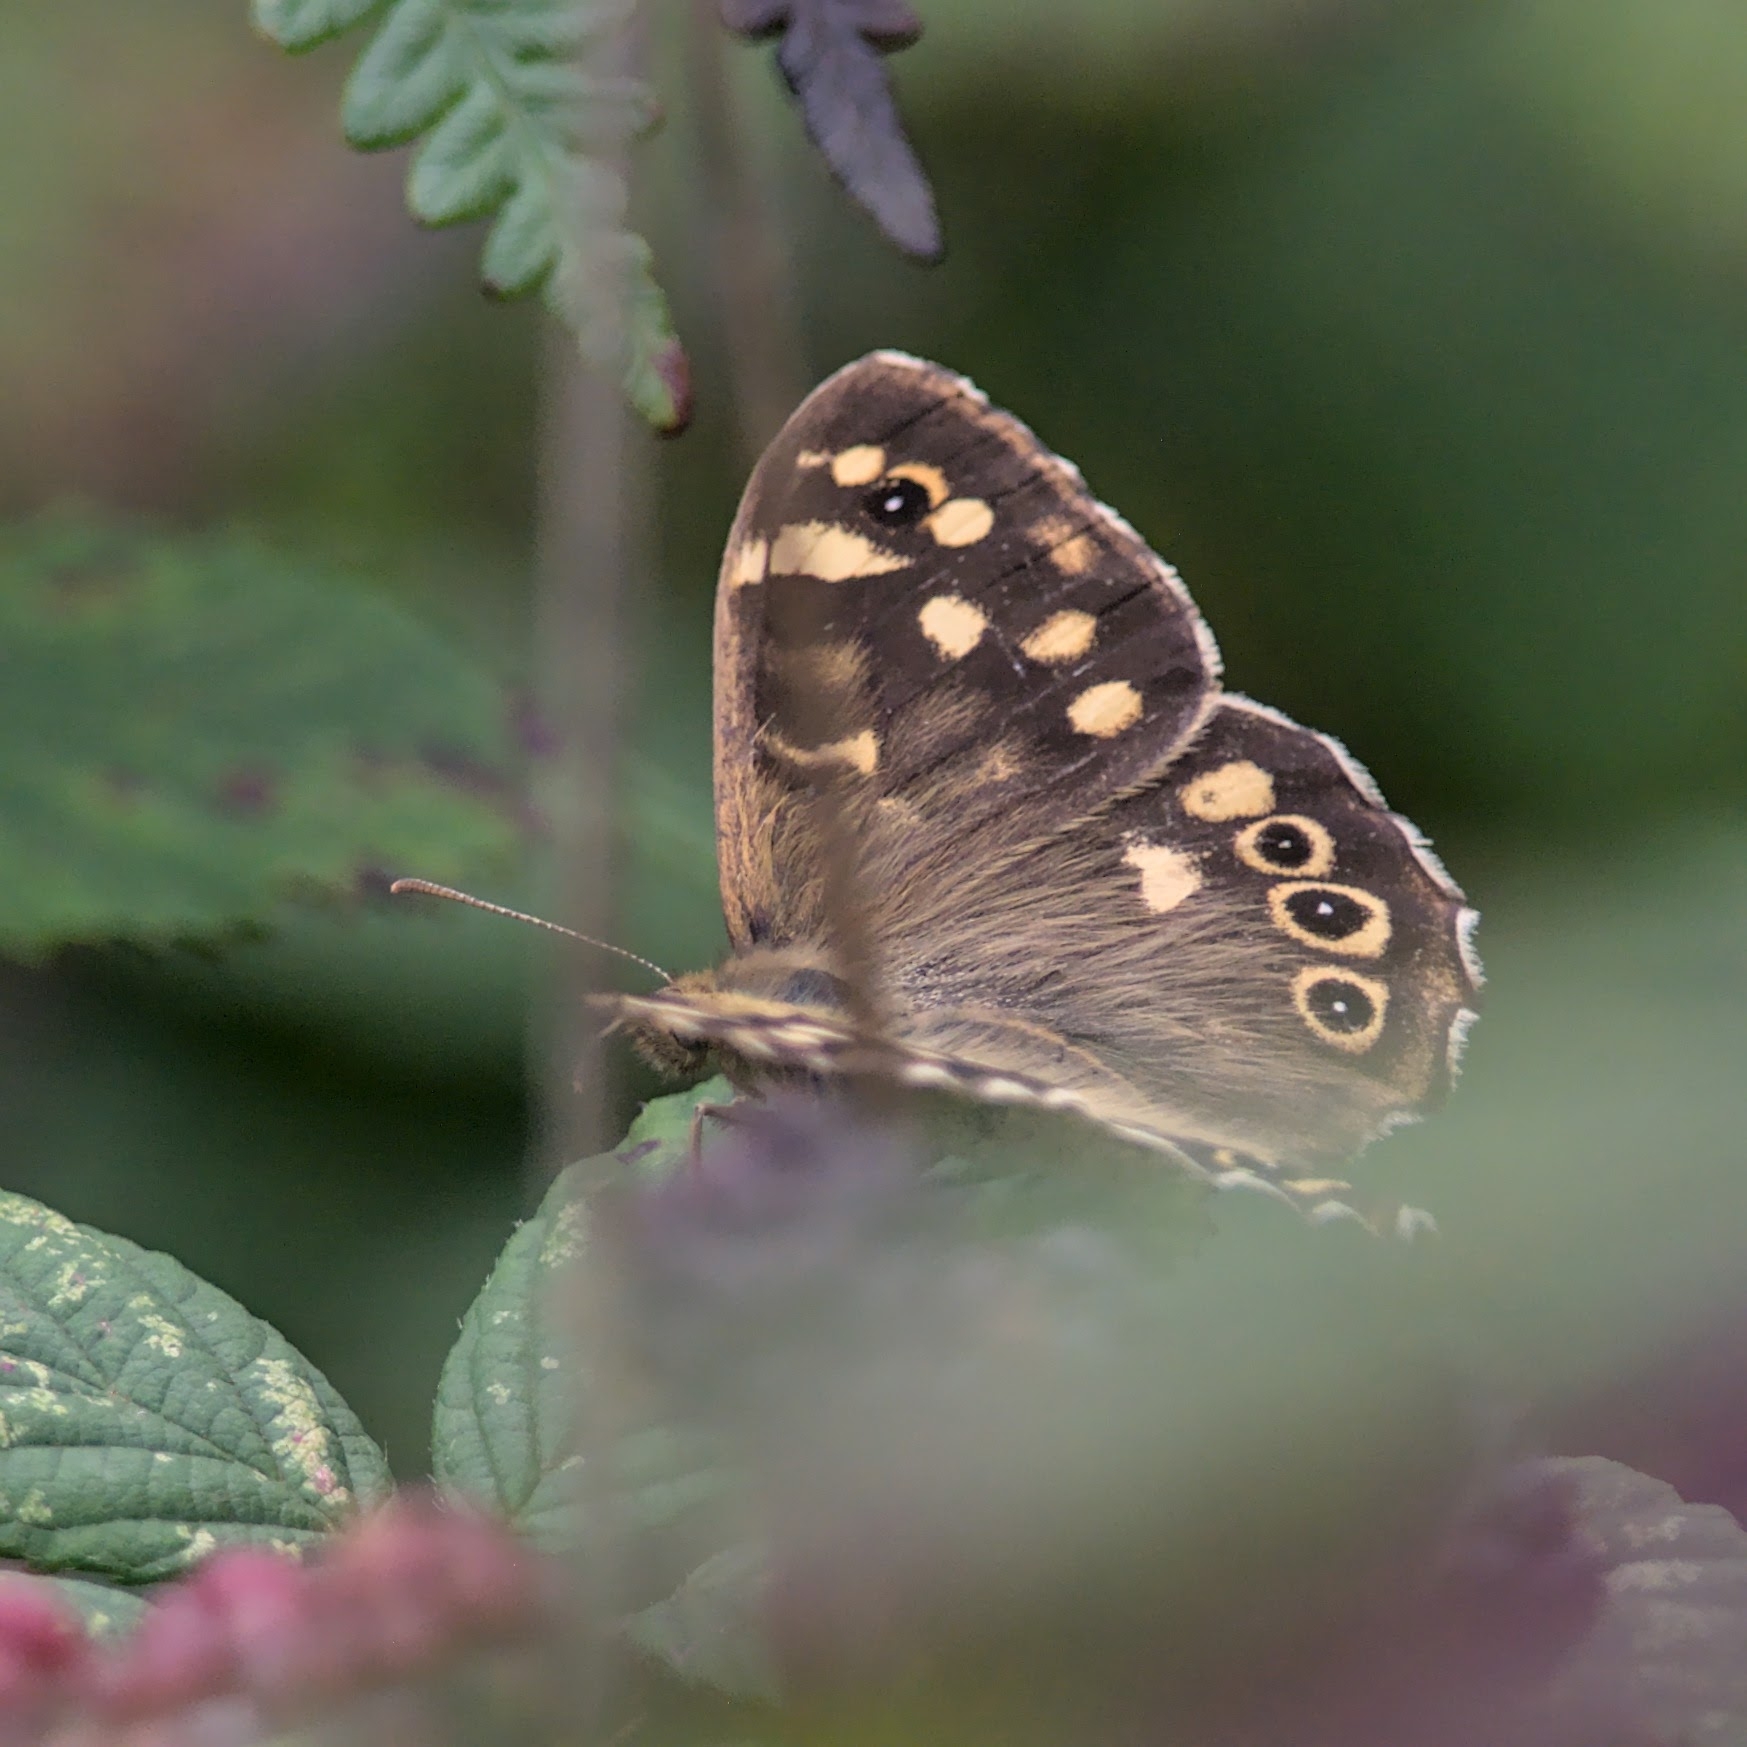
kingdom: Animalia
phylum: Arthropoda
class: Insecta
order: Lepidoptera
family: Nymphalidae
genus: Pararge
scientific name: Pararge aegeria
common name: Speckled wood
